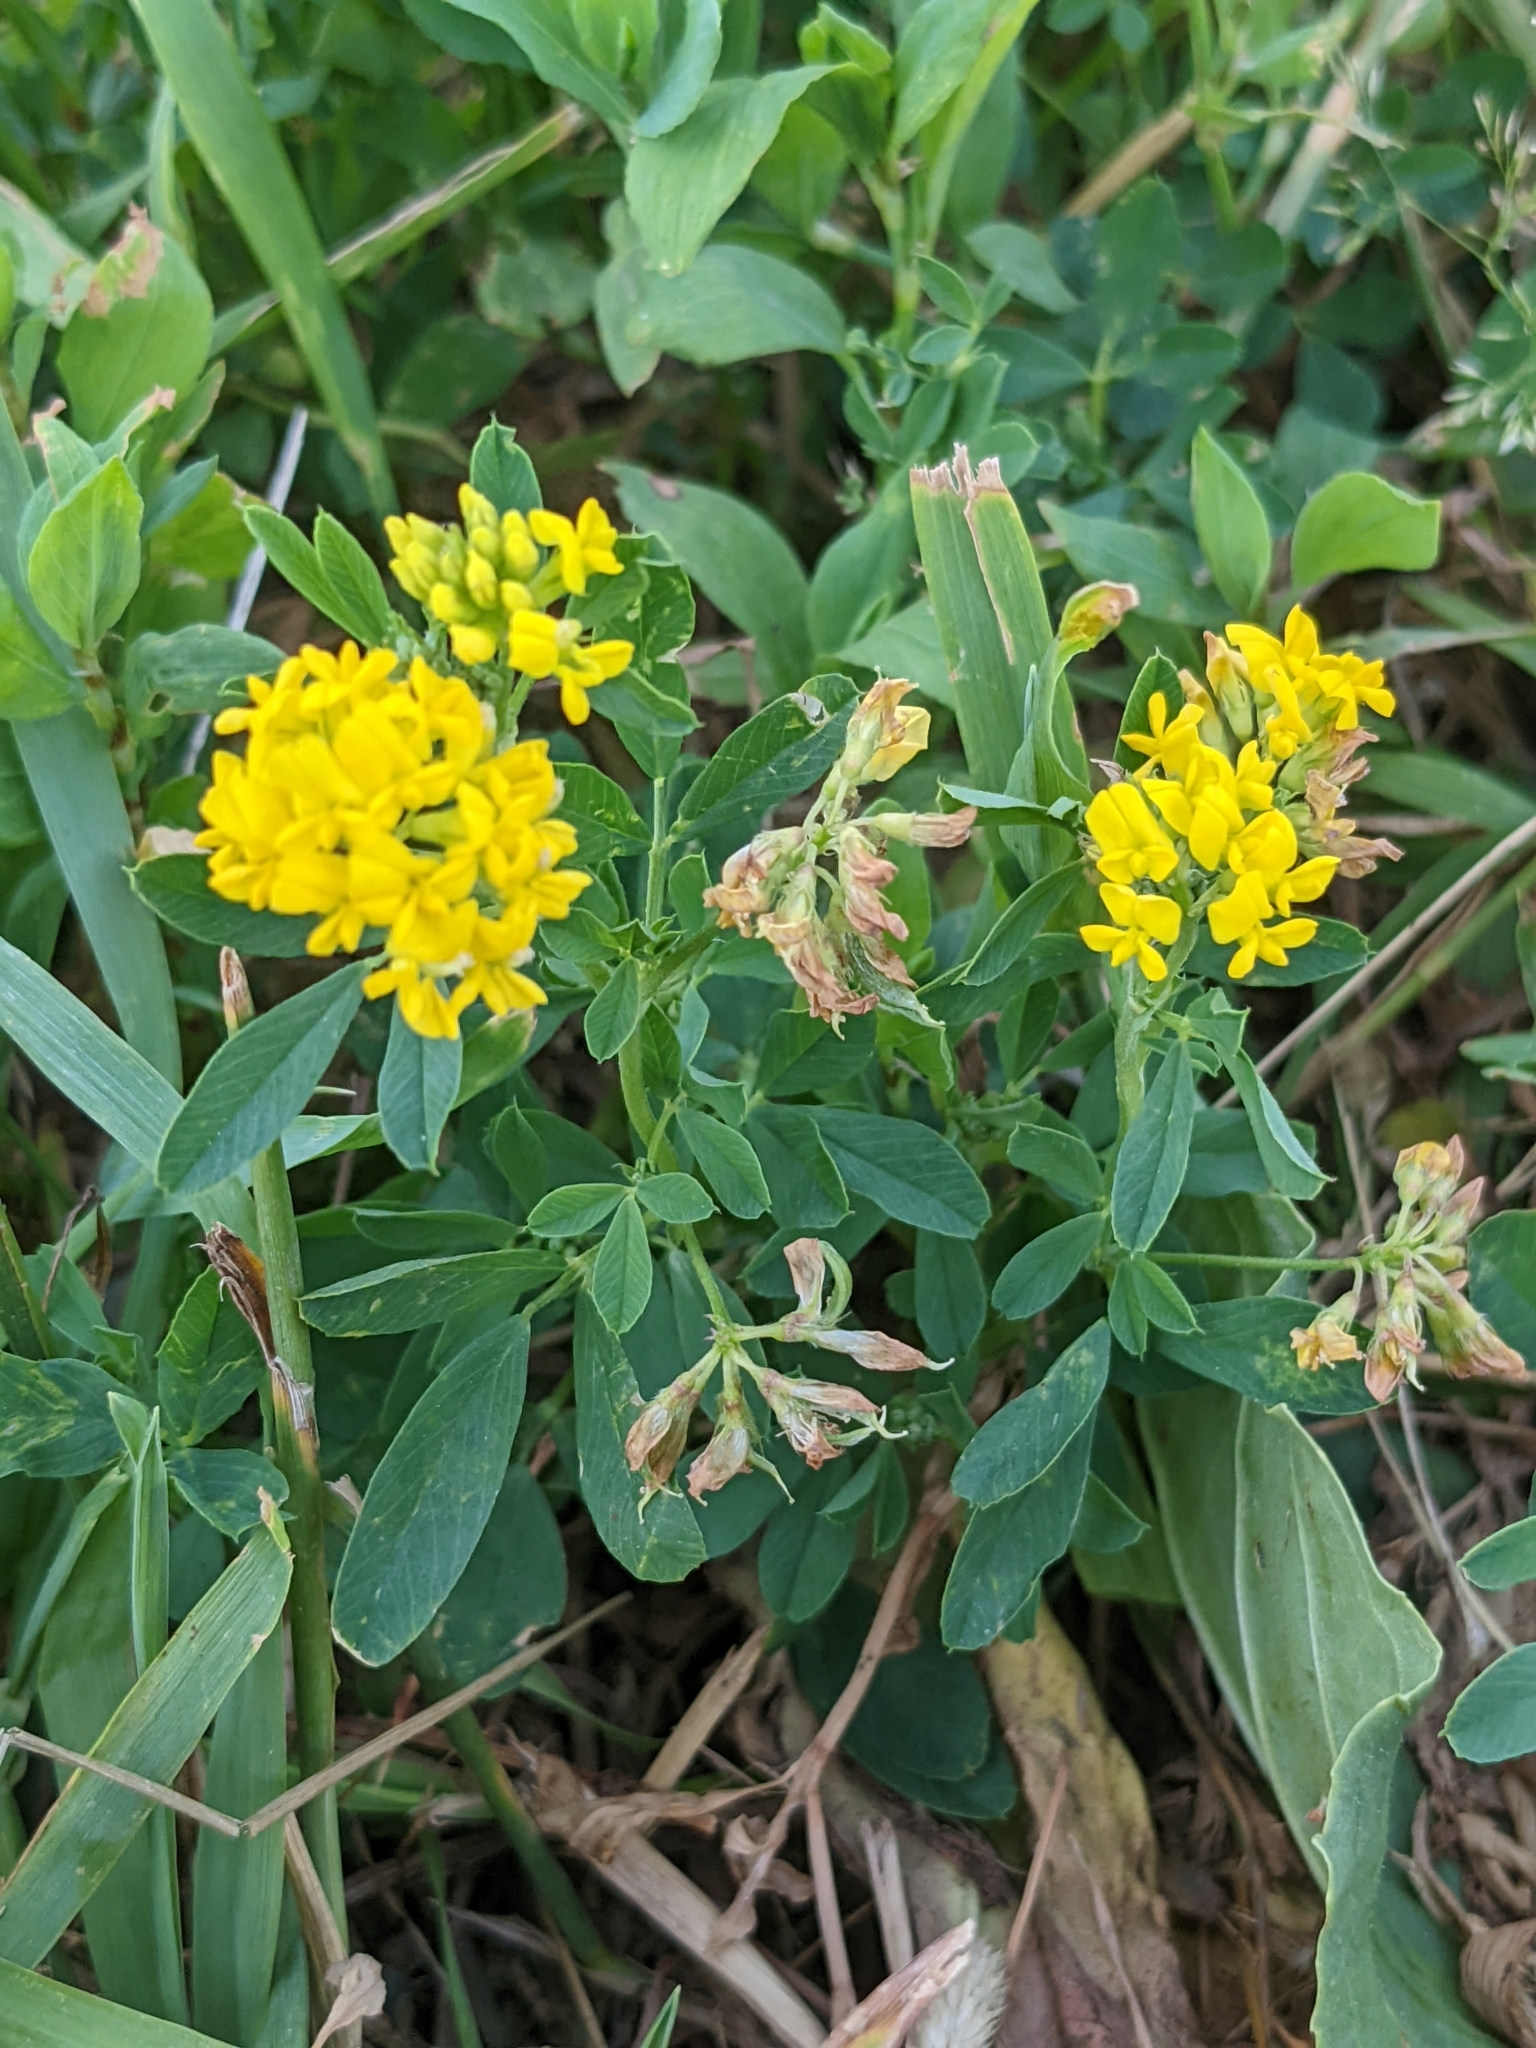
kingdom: Plantae
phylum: Tracheophyta
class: Magnoliopsida
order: Fabales
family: Fabaceae
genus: Medicago
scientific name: Medicago falcata
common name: Sickle medick
